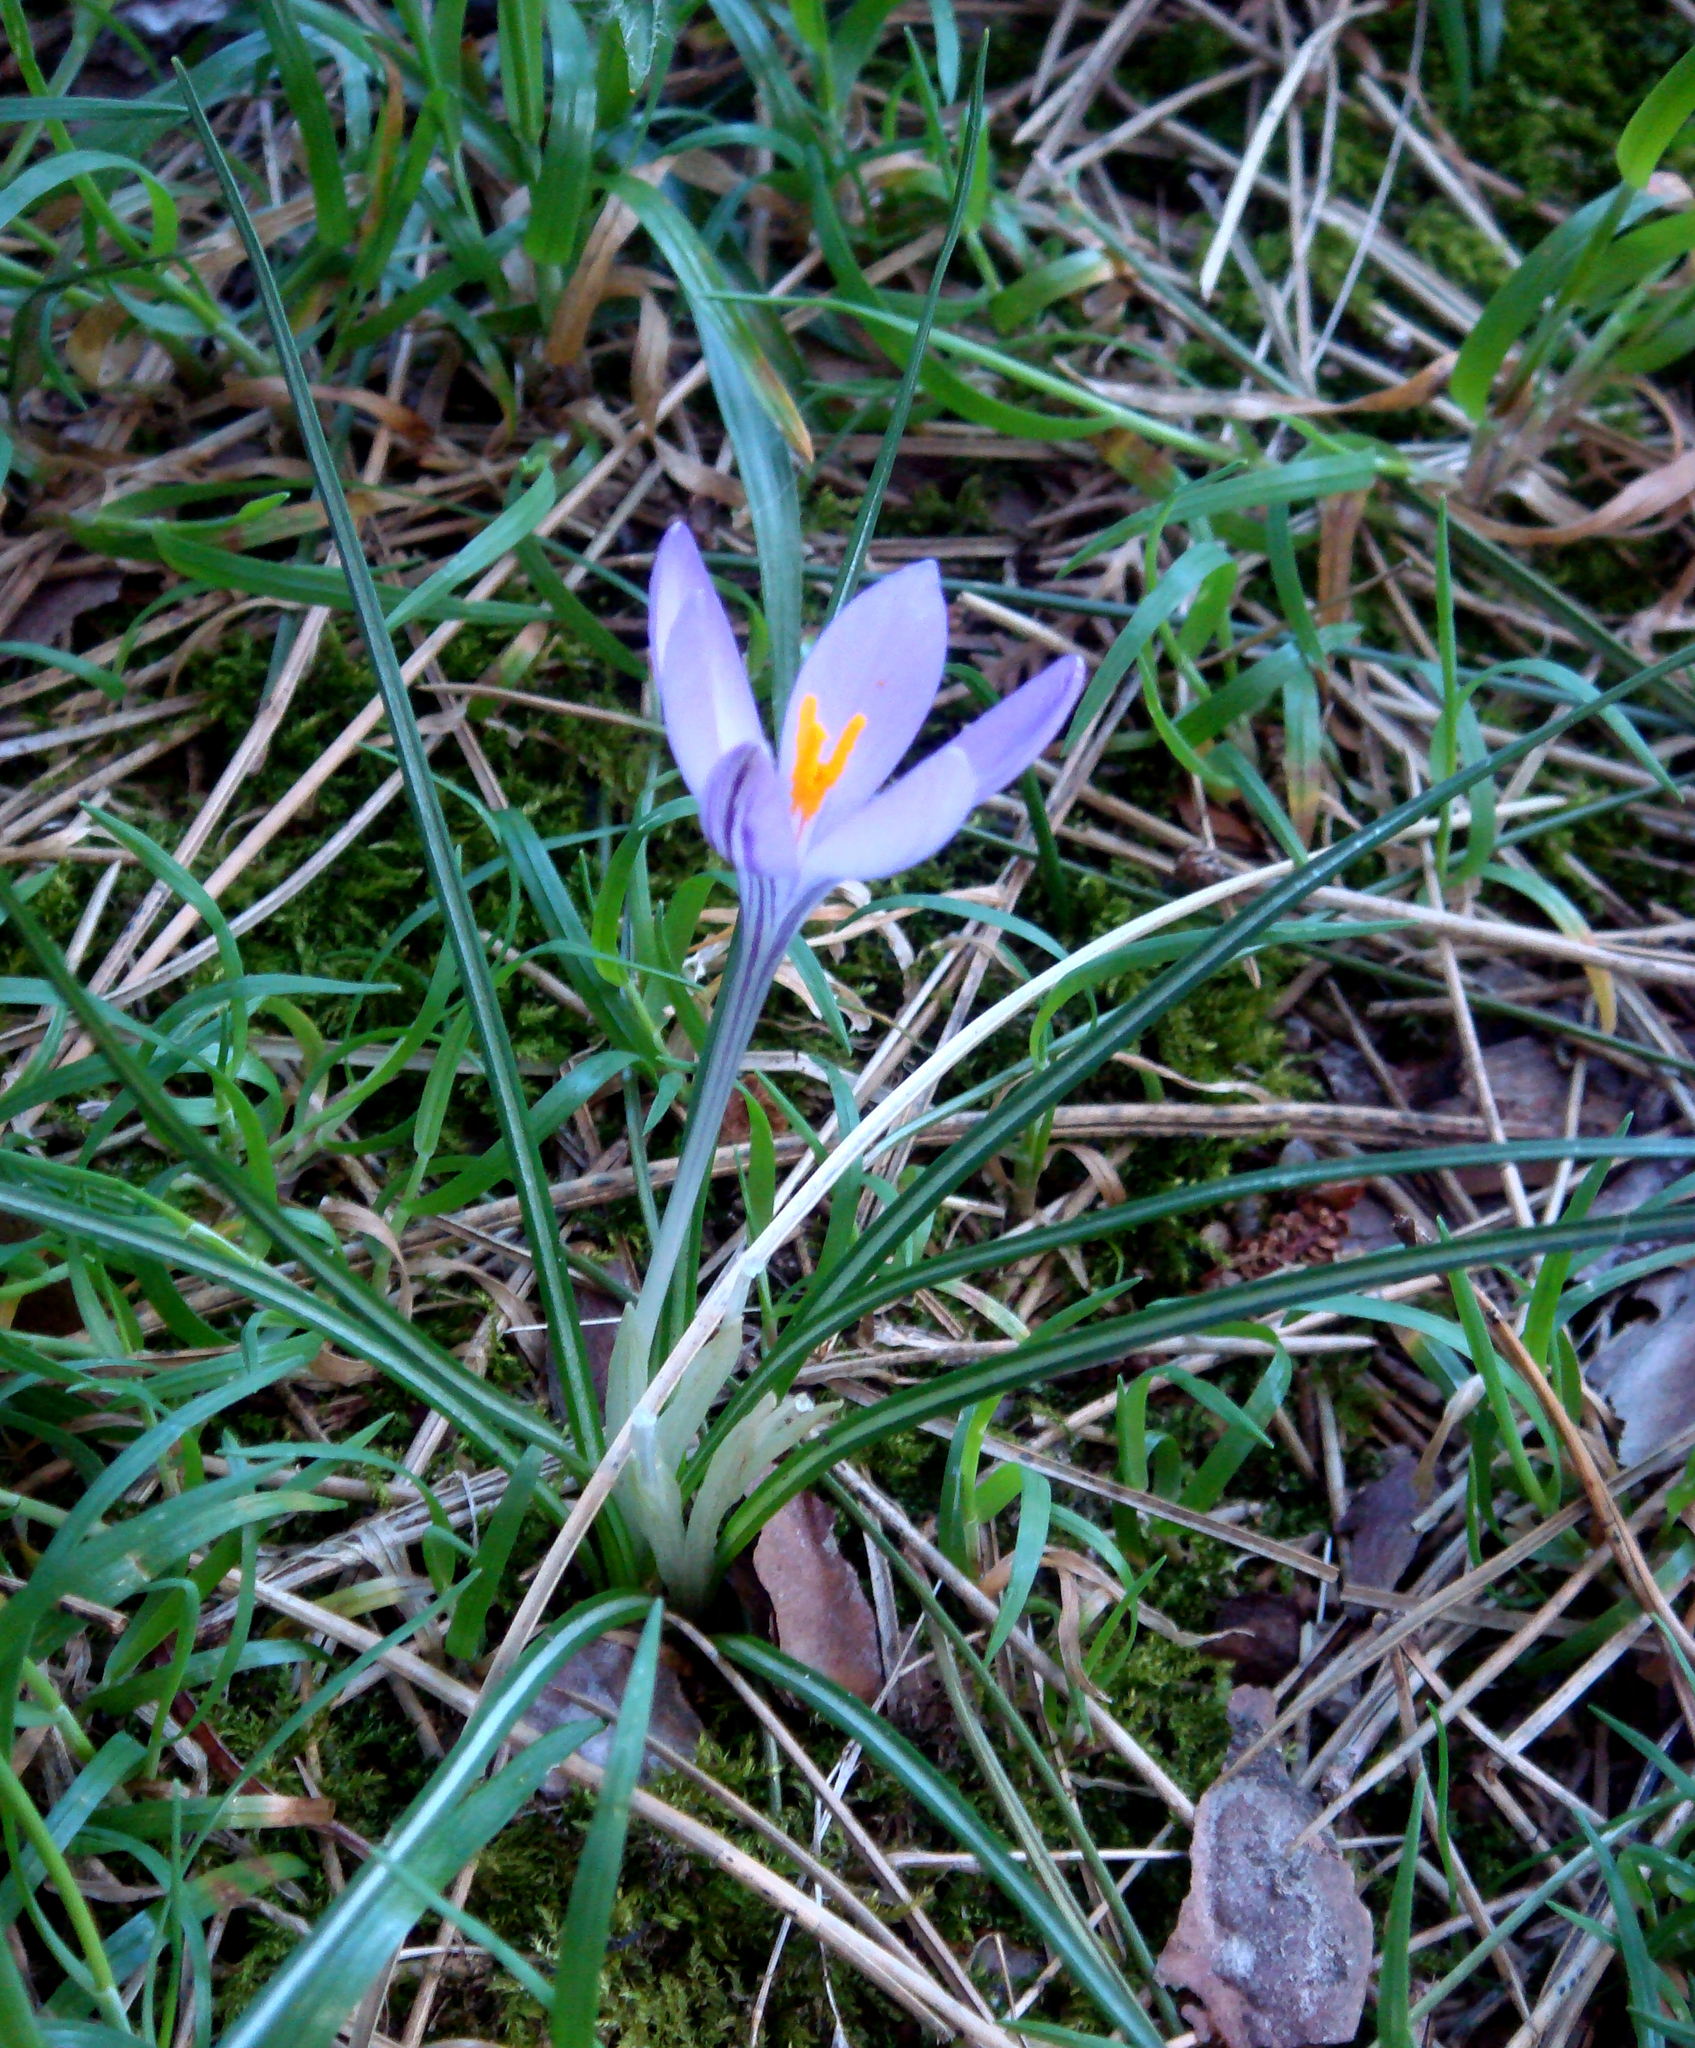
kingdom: Plantae
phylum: Tracheophyta
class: Liliopsida
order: Asparagales
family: Iridaceae
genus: Crocus
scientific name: Crocus minimus
